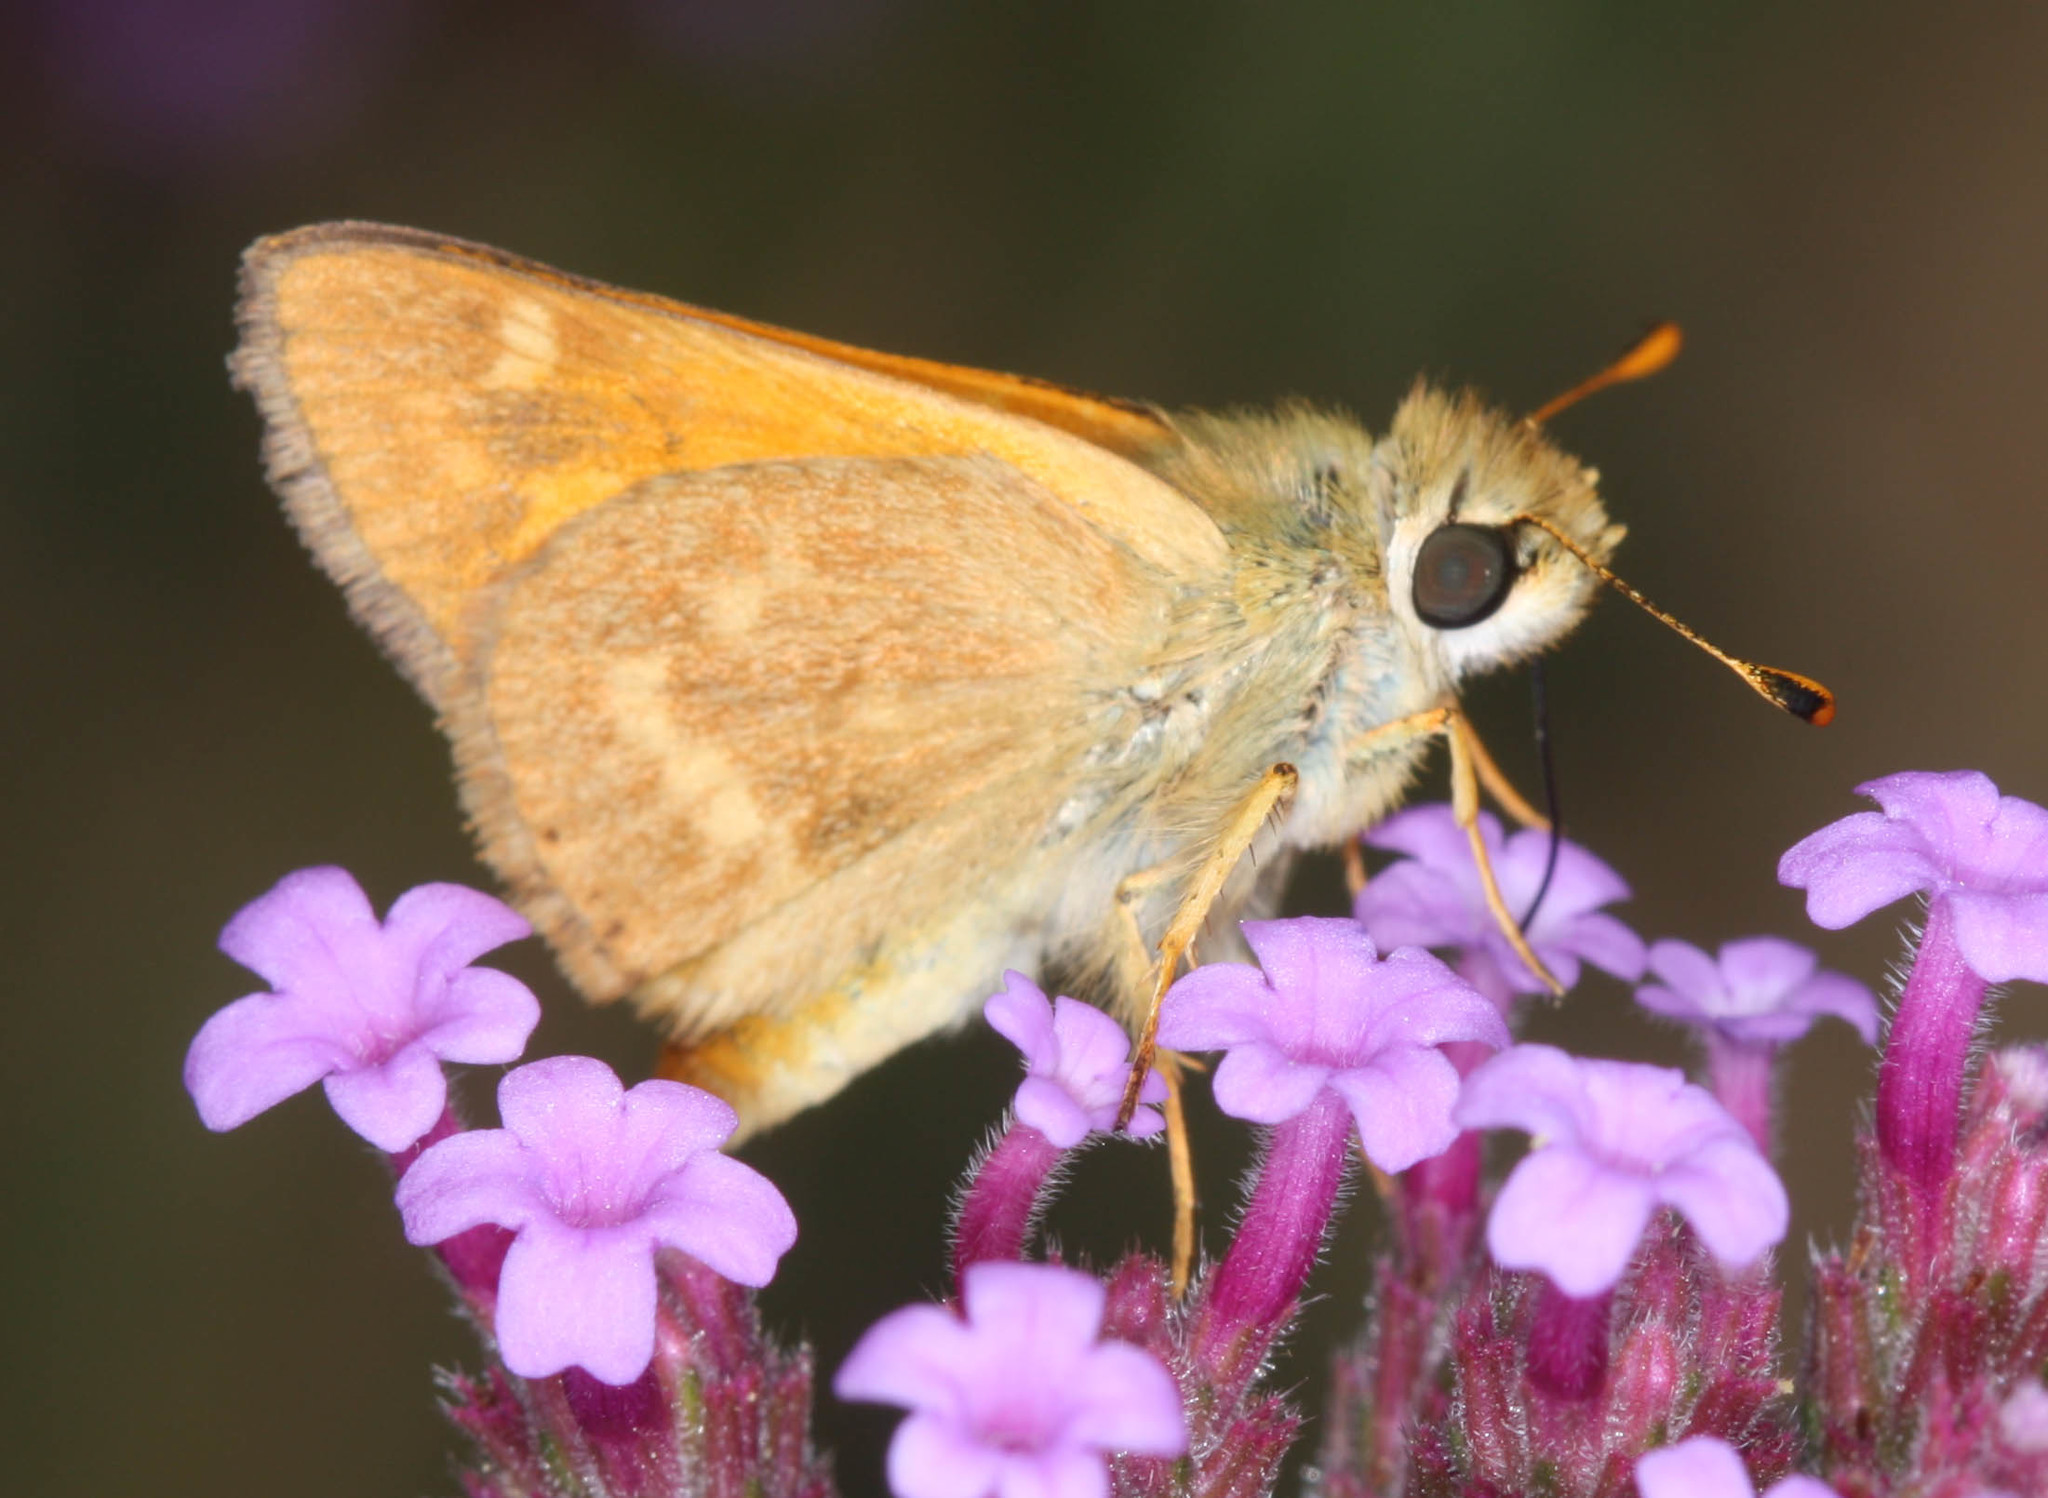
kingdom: Animalia
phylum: Arthropoda
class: Insecta
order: Lepidoptera
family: Hesperiidae
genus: Atalopedes
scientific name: Atalopedes campestris
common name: Sachem
